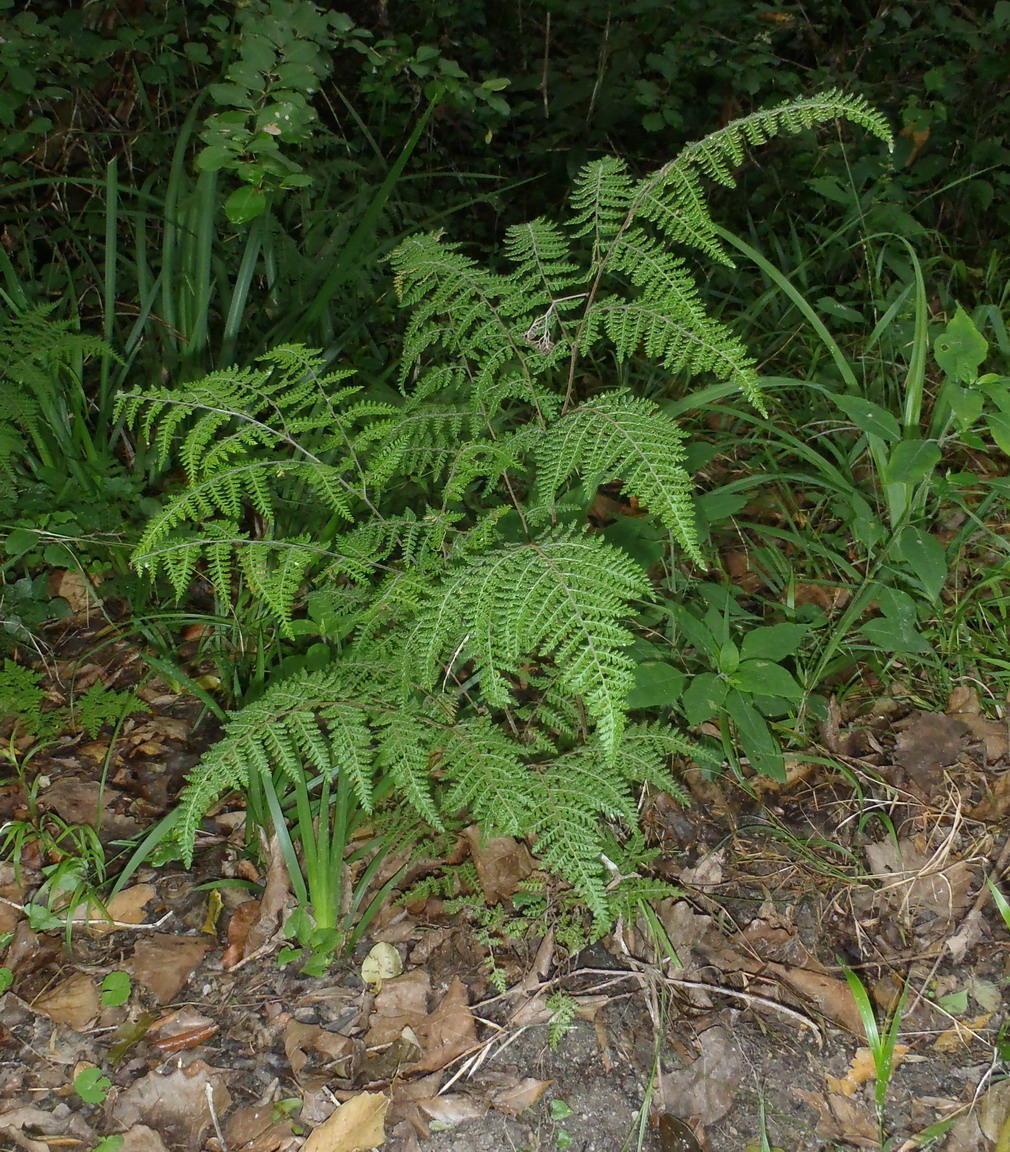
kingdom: Plantae
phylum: Tracheophyta
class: Polypodiopsida
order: Polypodiales
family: Pteridaceae
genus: Cheilanthes
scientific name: Cheilanthes bergiana
